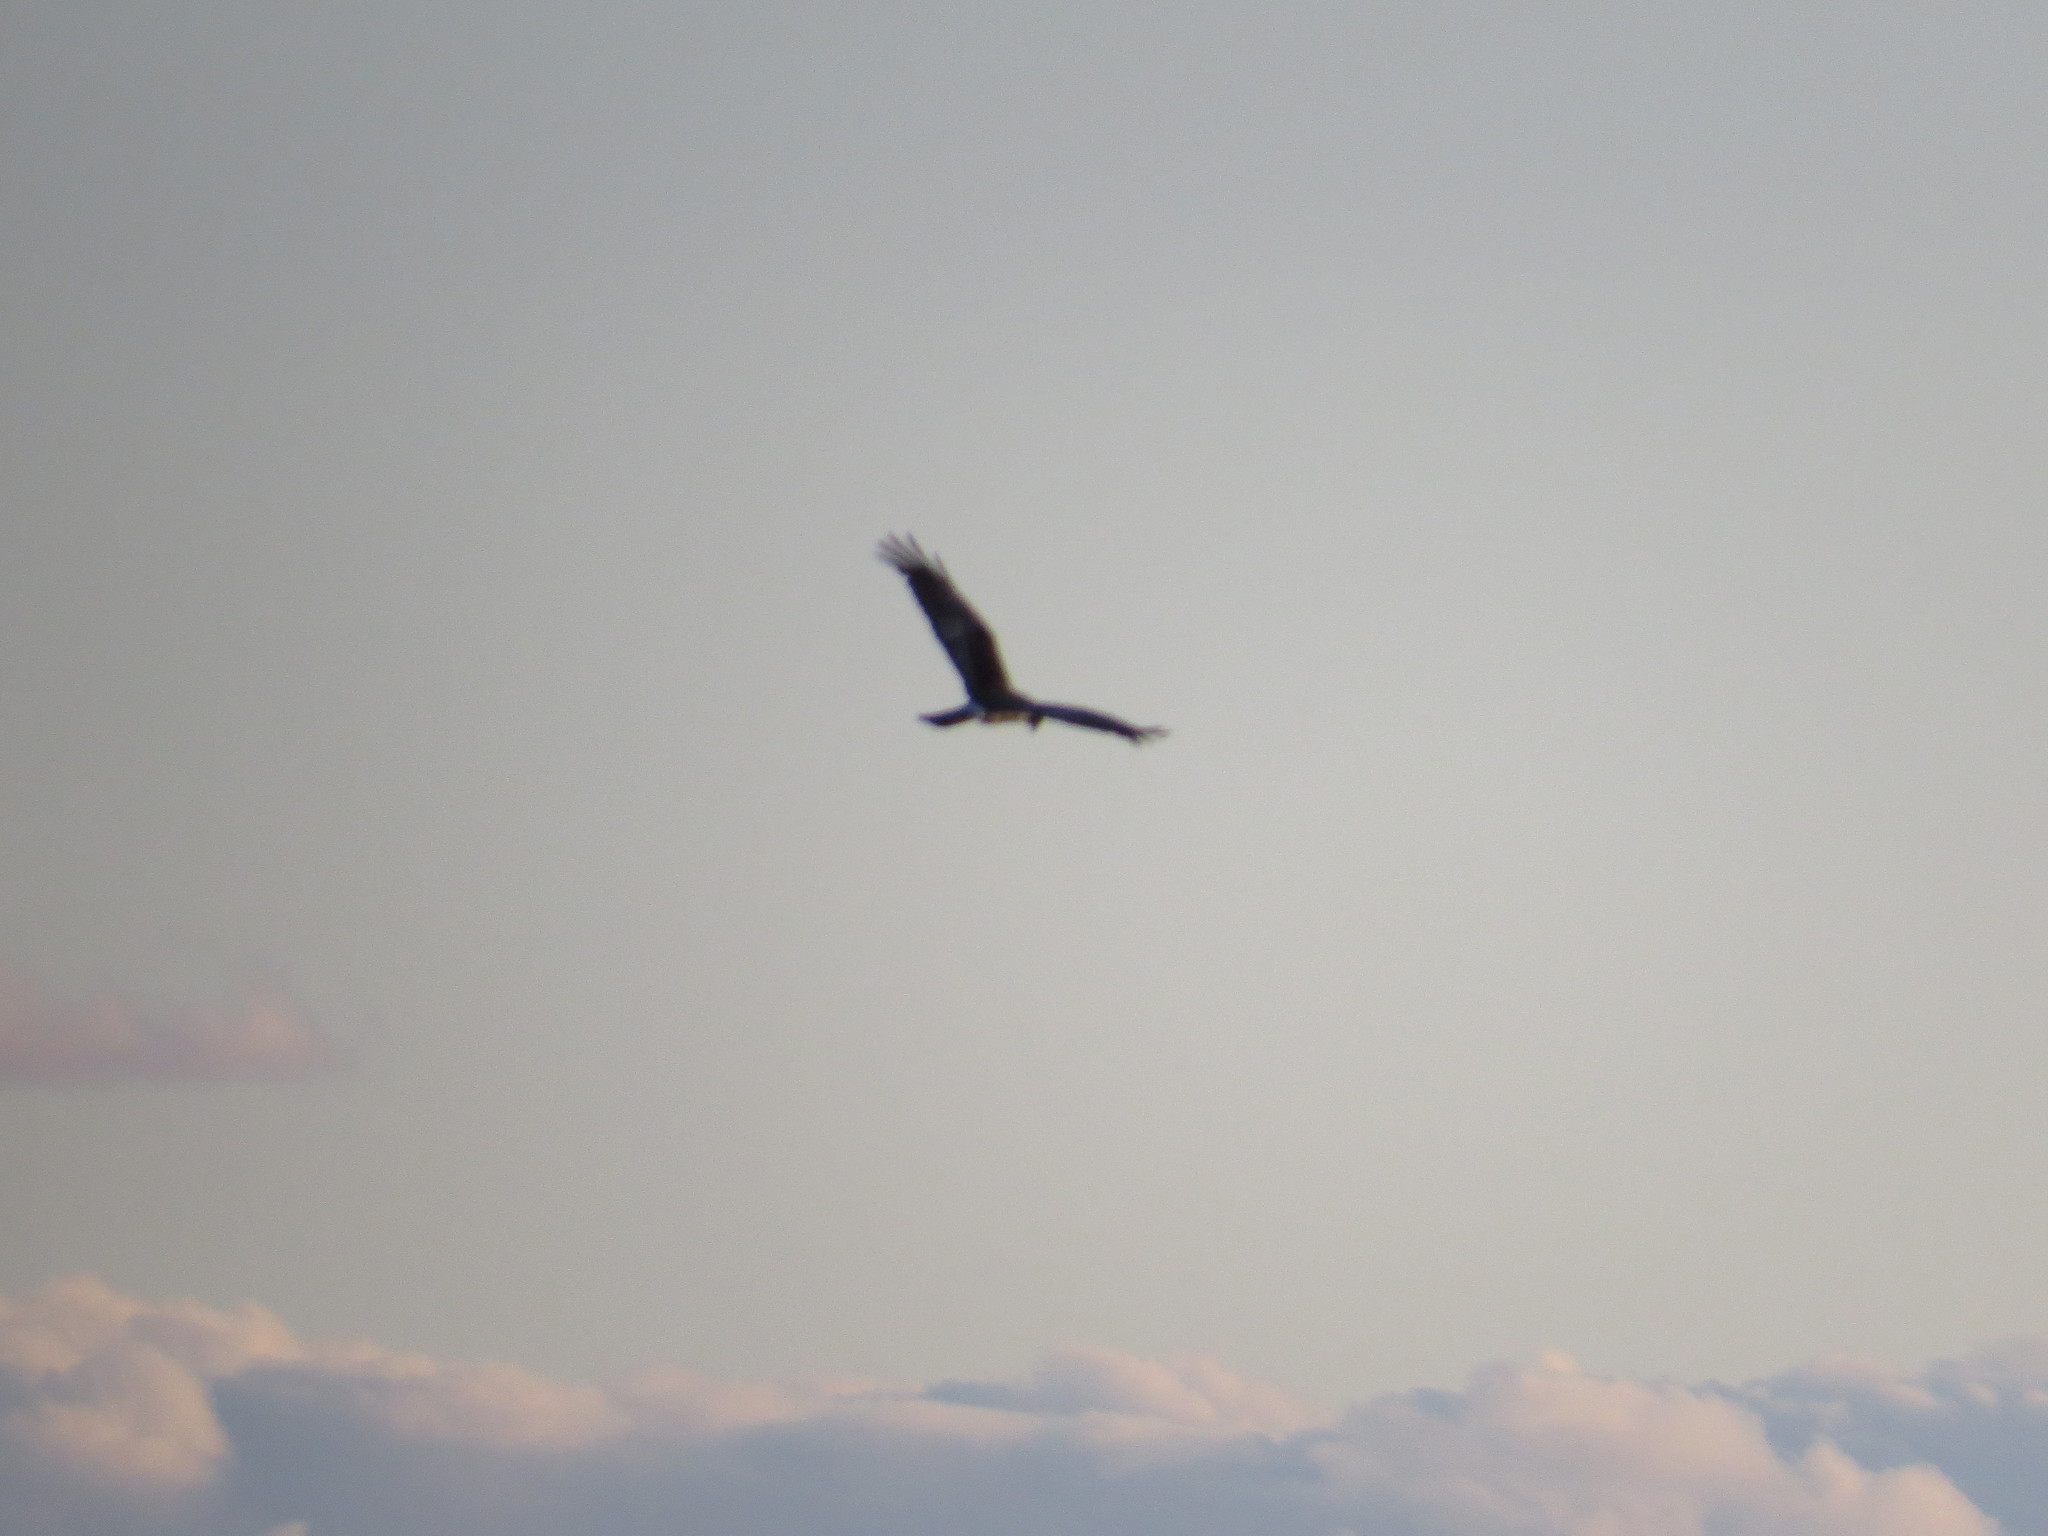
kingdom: Animalia
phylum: Chordata
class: Aves
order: Accipitriformes
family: Accipitridae
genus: Circus
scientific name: Circus buffoni
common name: Long-winged harrier
